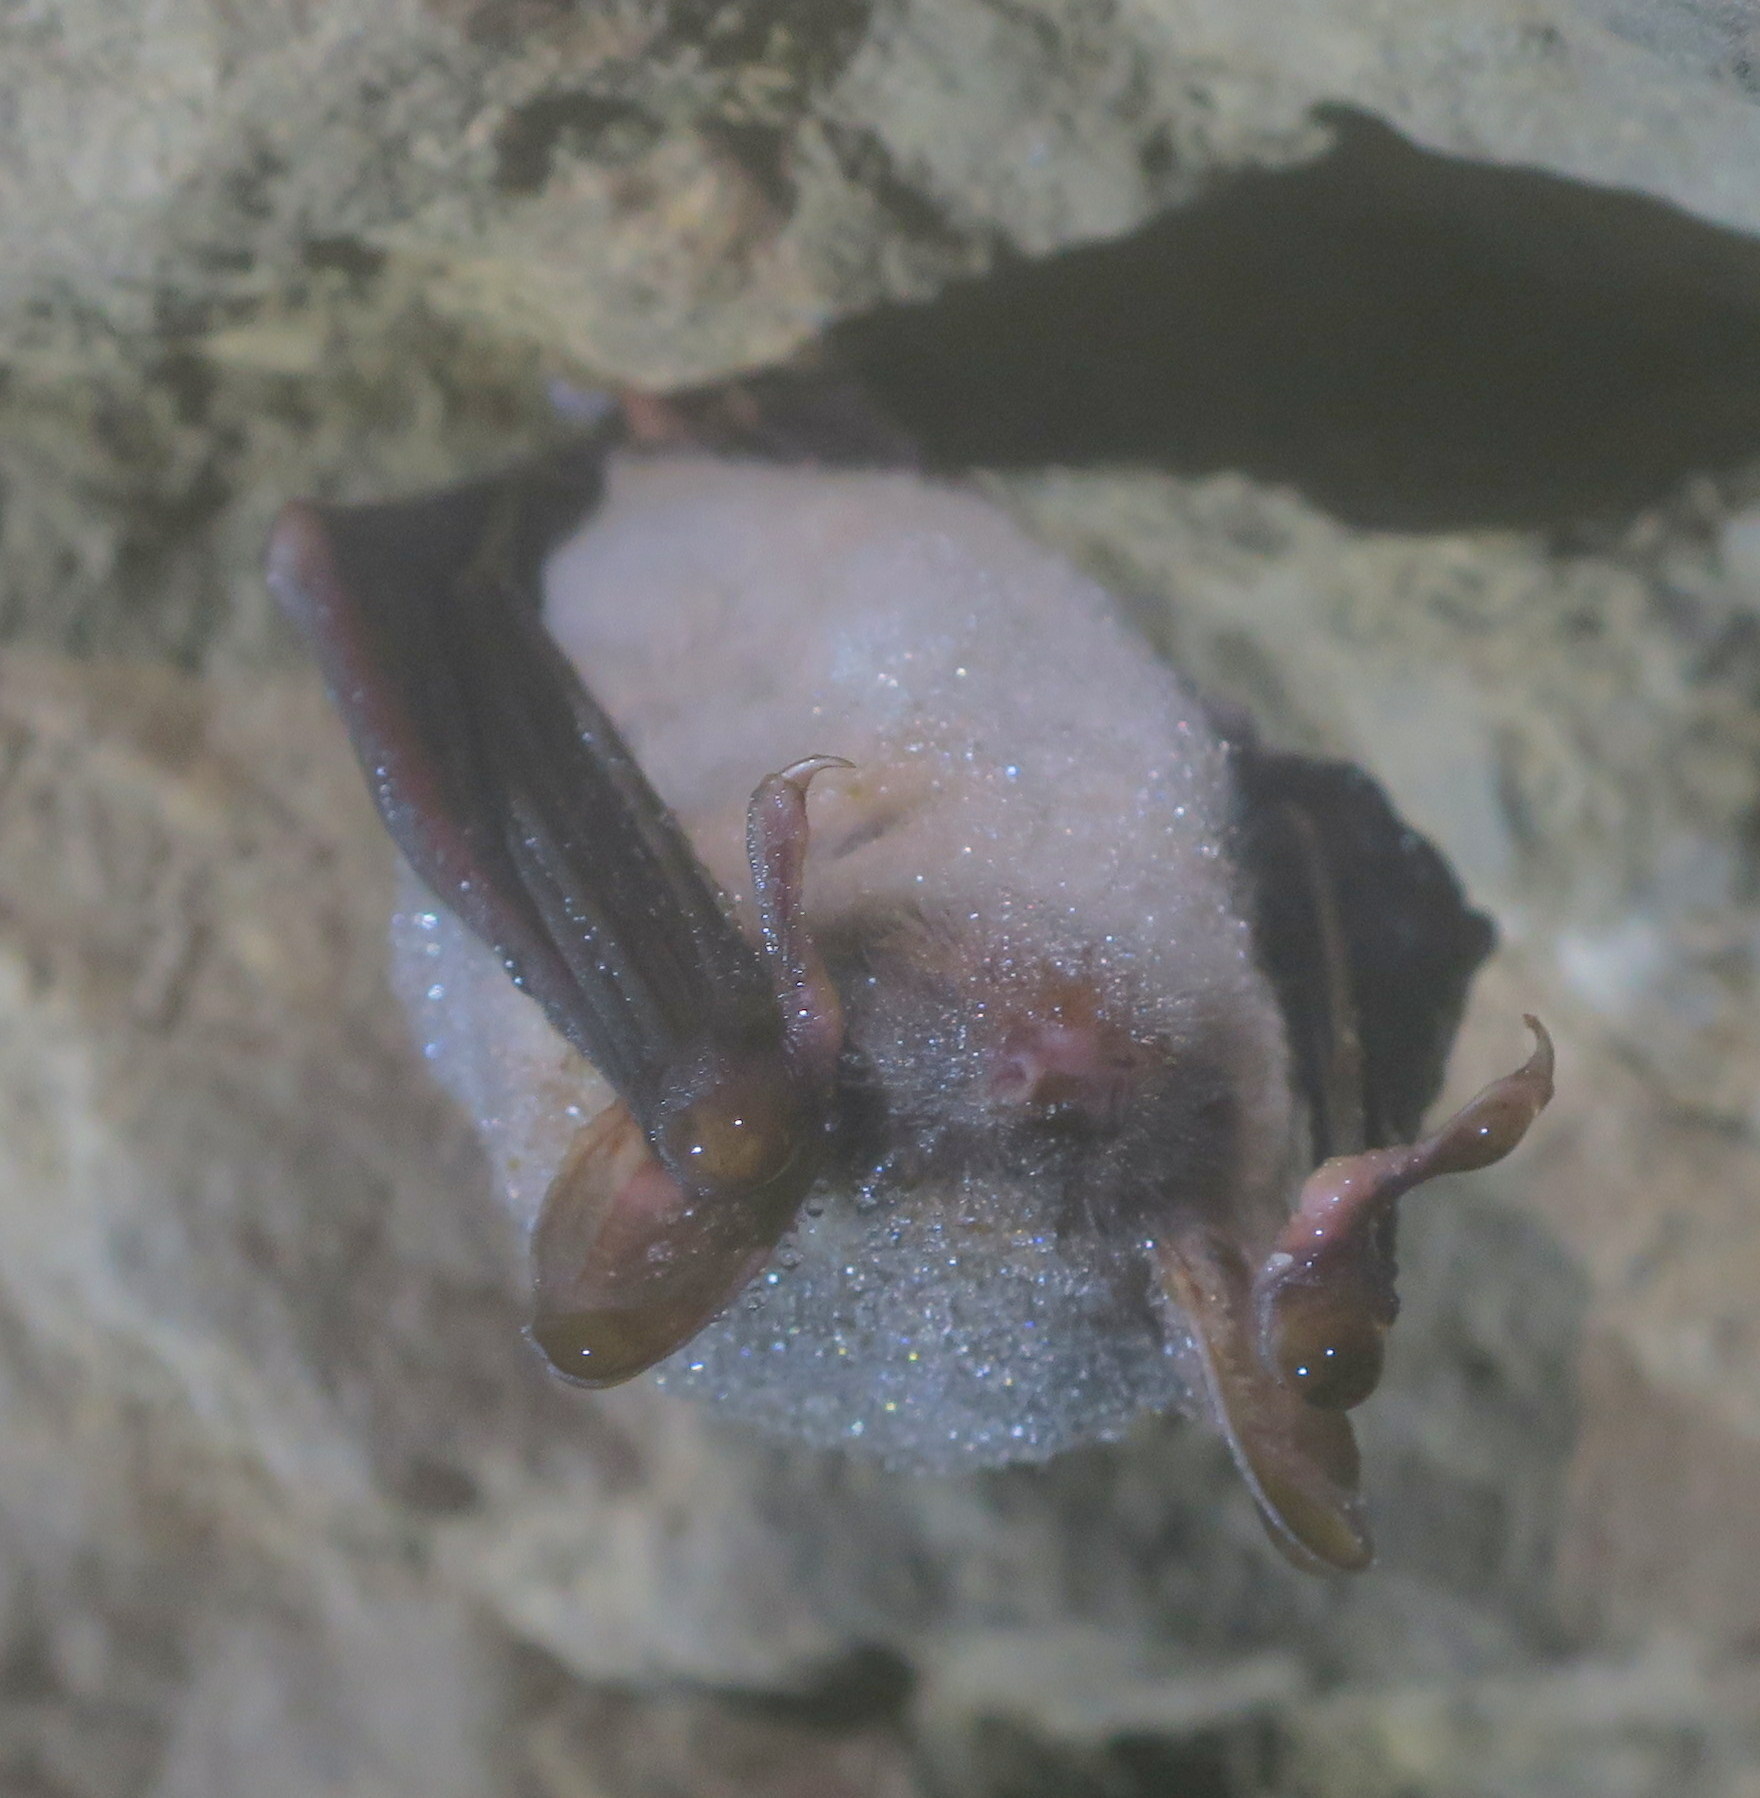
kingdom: Animalia
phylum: Chordata
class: Mammalia
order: Chiroptera
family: Vespertilionidae
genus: Myotis
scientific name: Myotis myotis
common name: Greater mouse-eared bat
